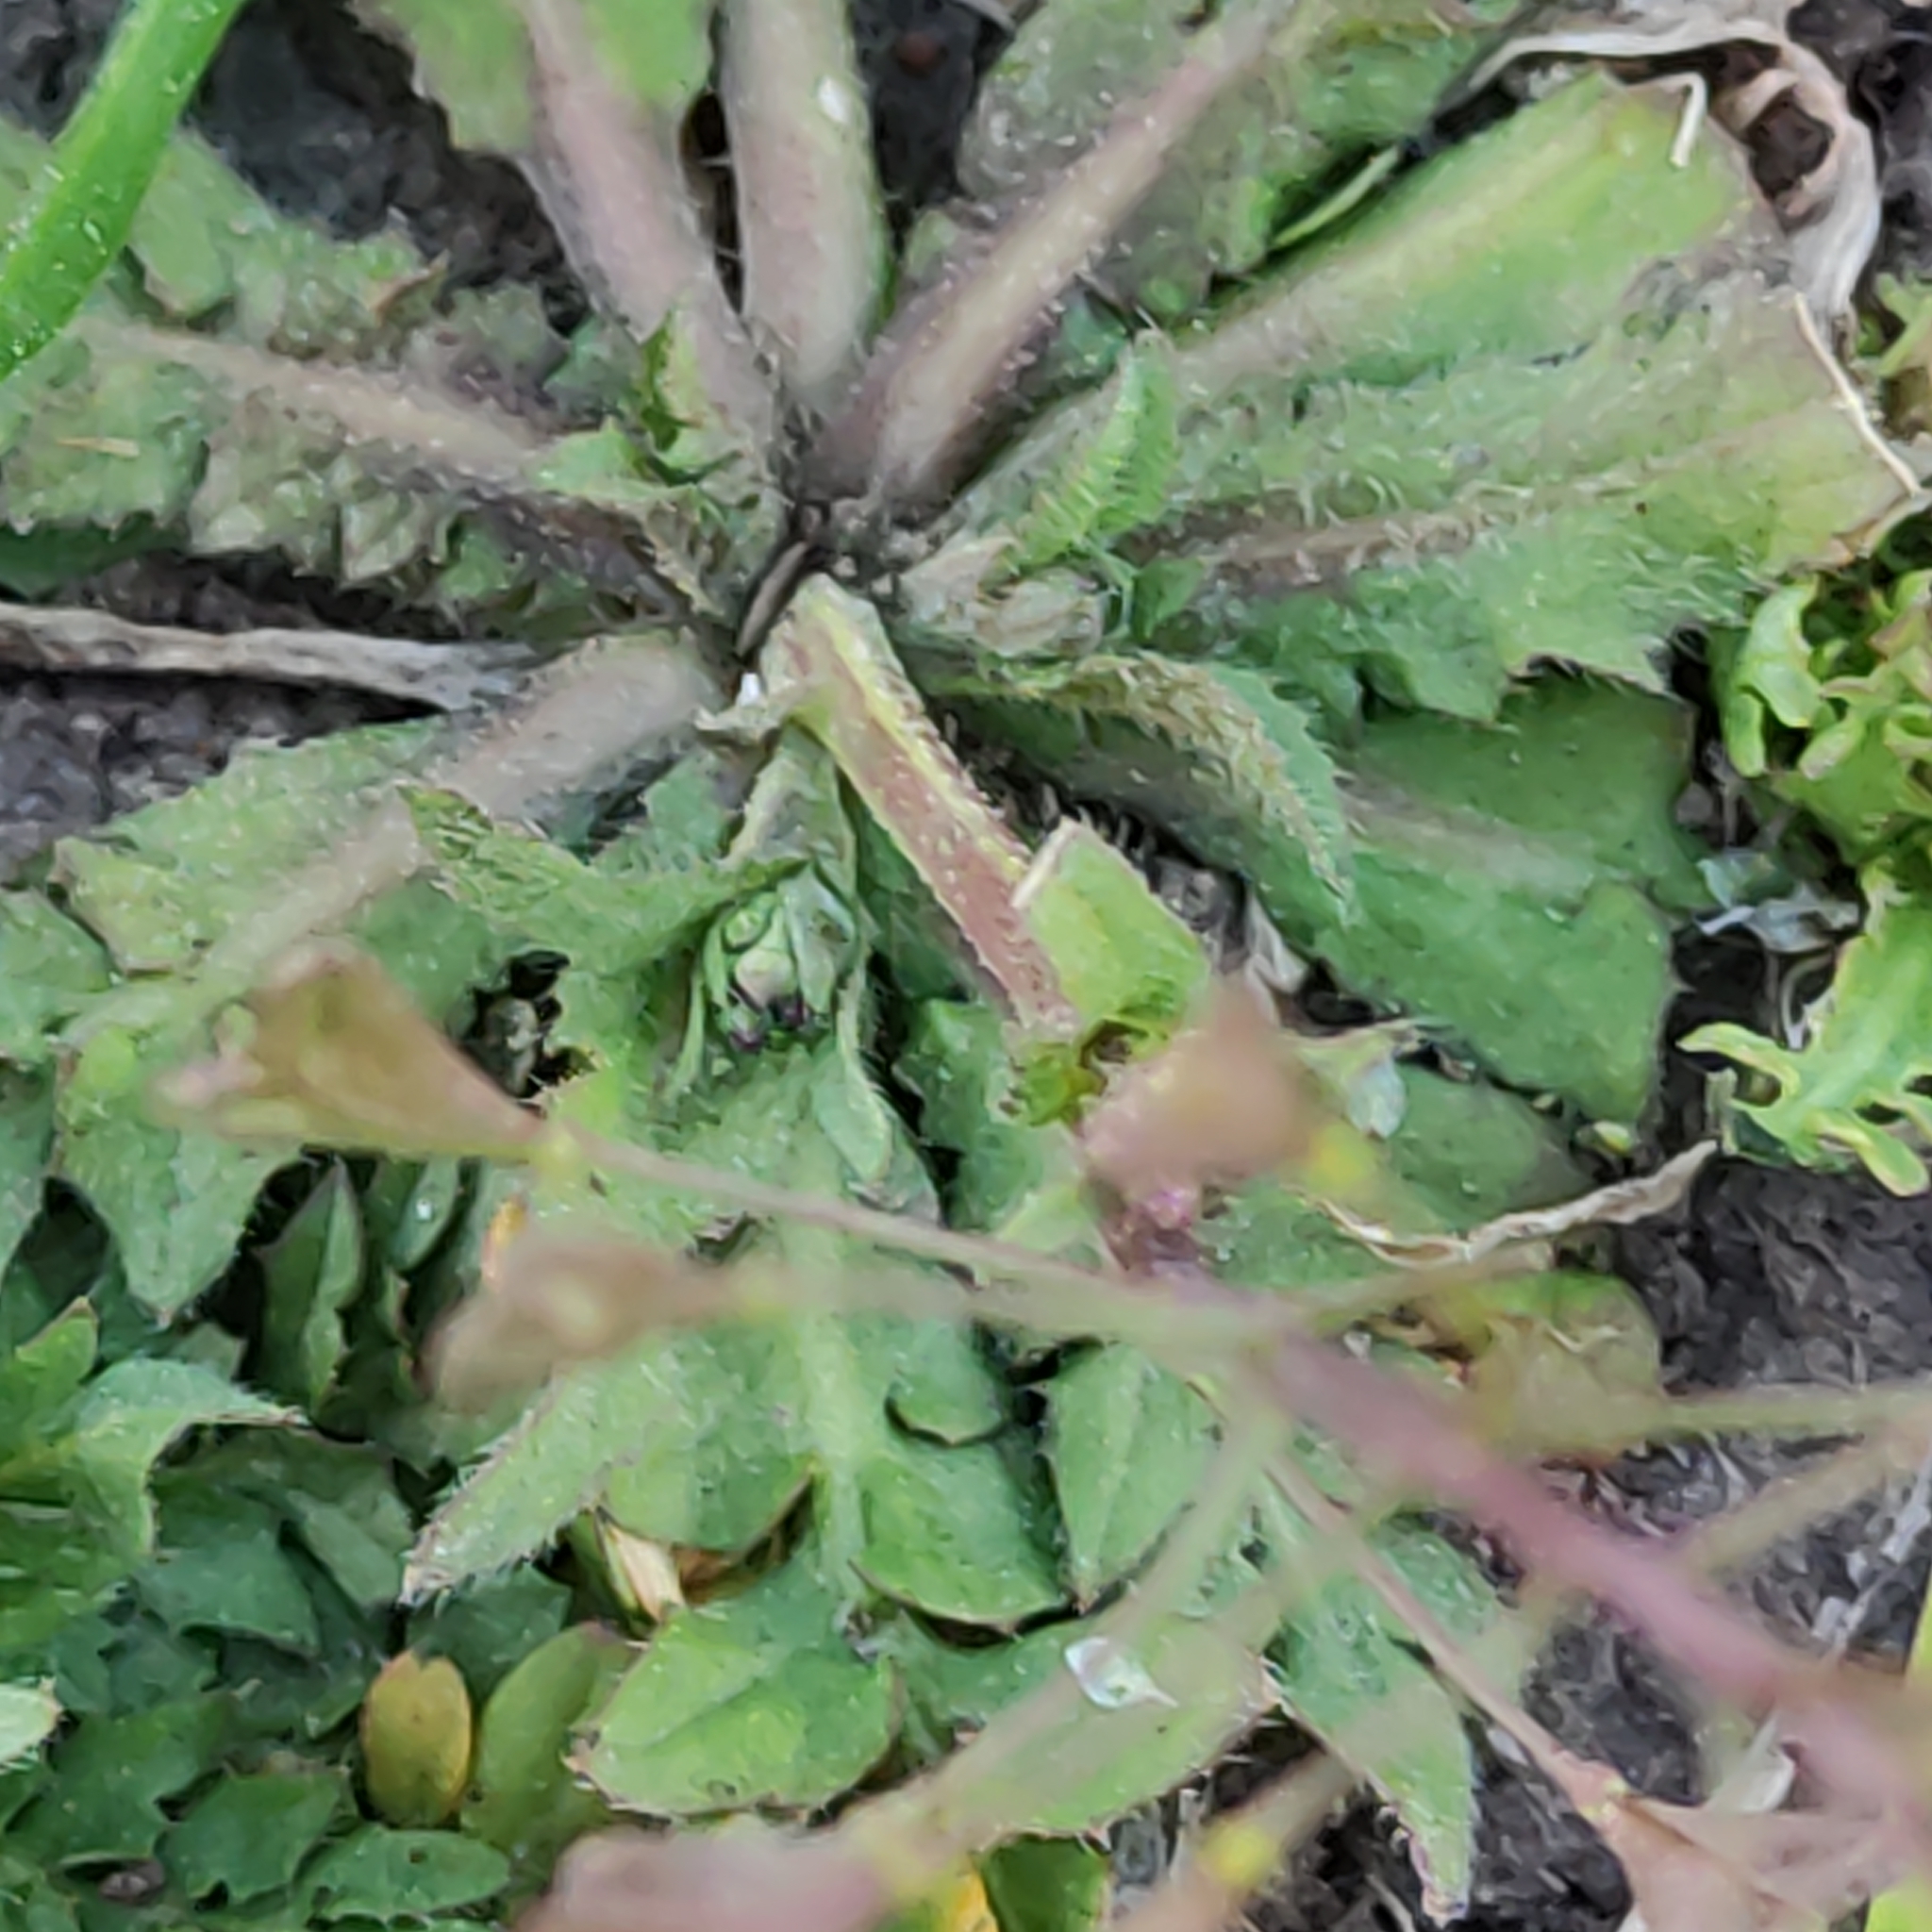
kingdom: Plantae
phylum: Tracheophyta
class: Magnoliopsida
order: Brassicales
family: Brassicaceae
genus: Capsella
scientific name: Capsella bursa-pastoris
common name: Shepherd's purse
